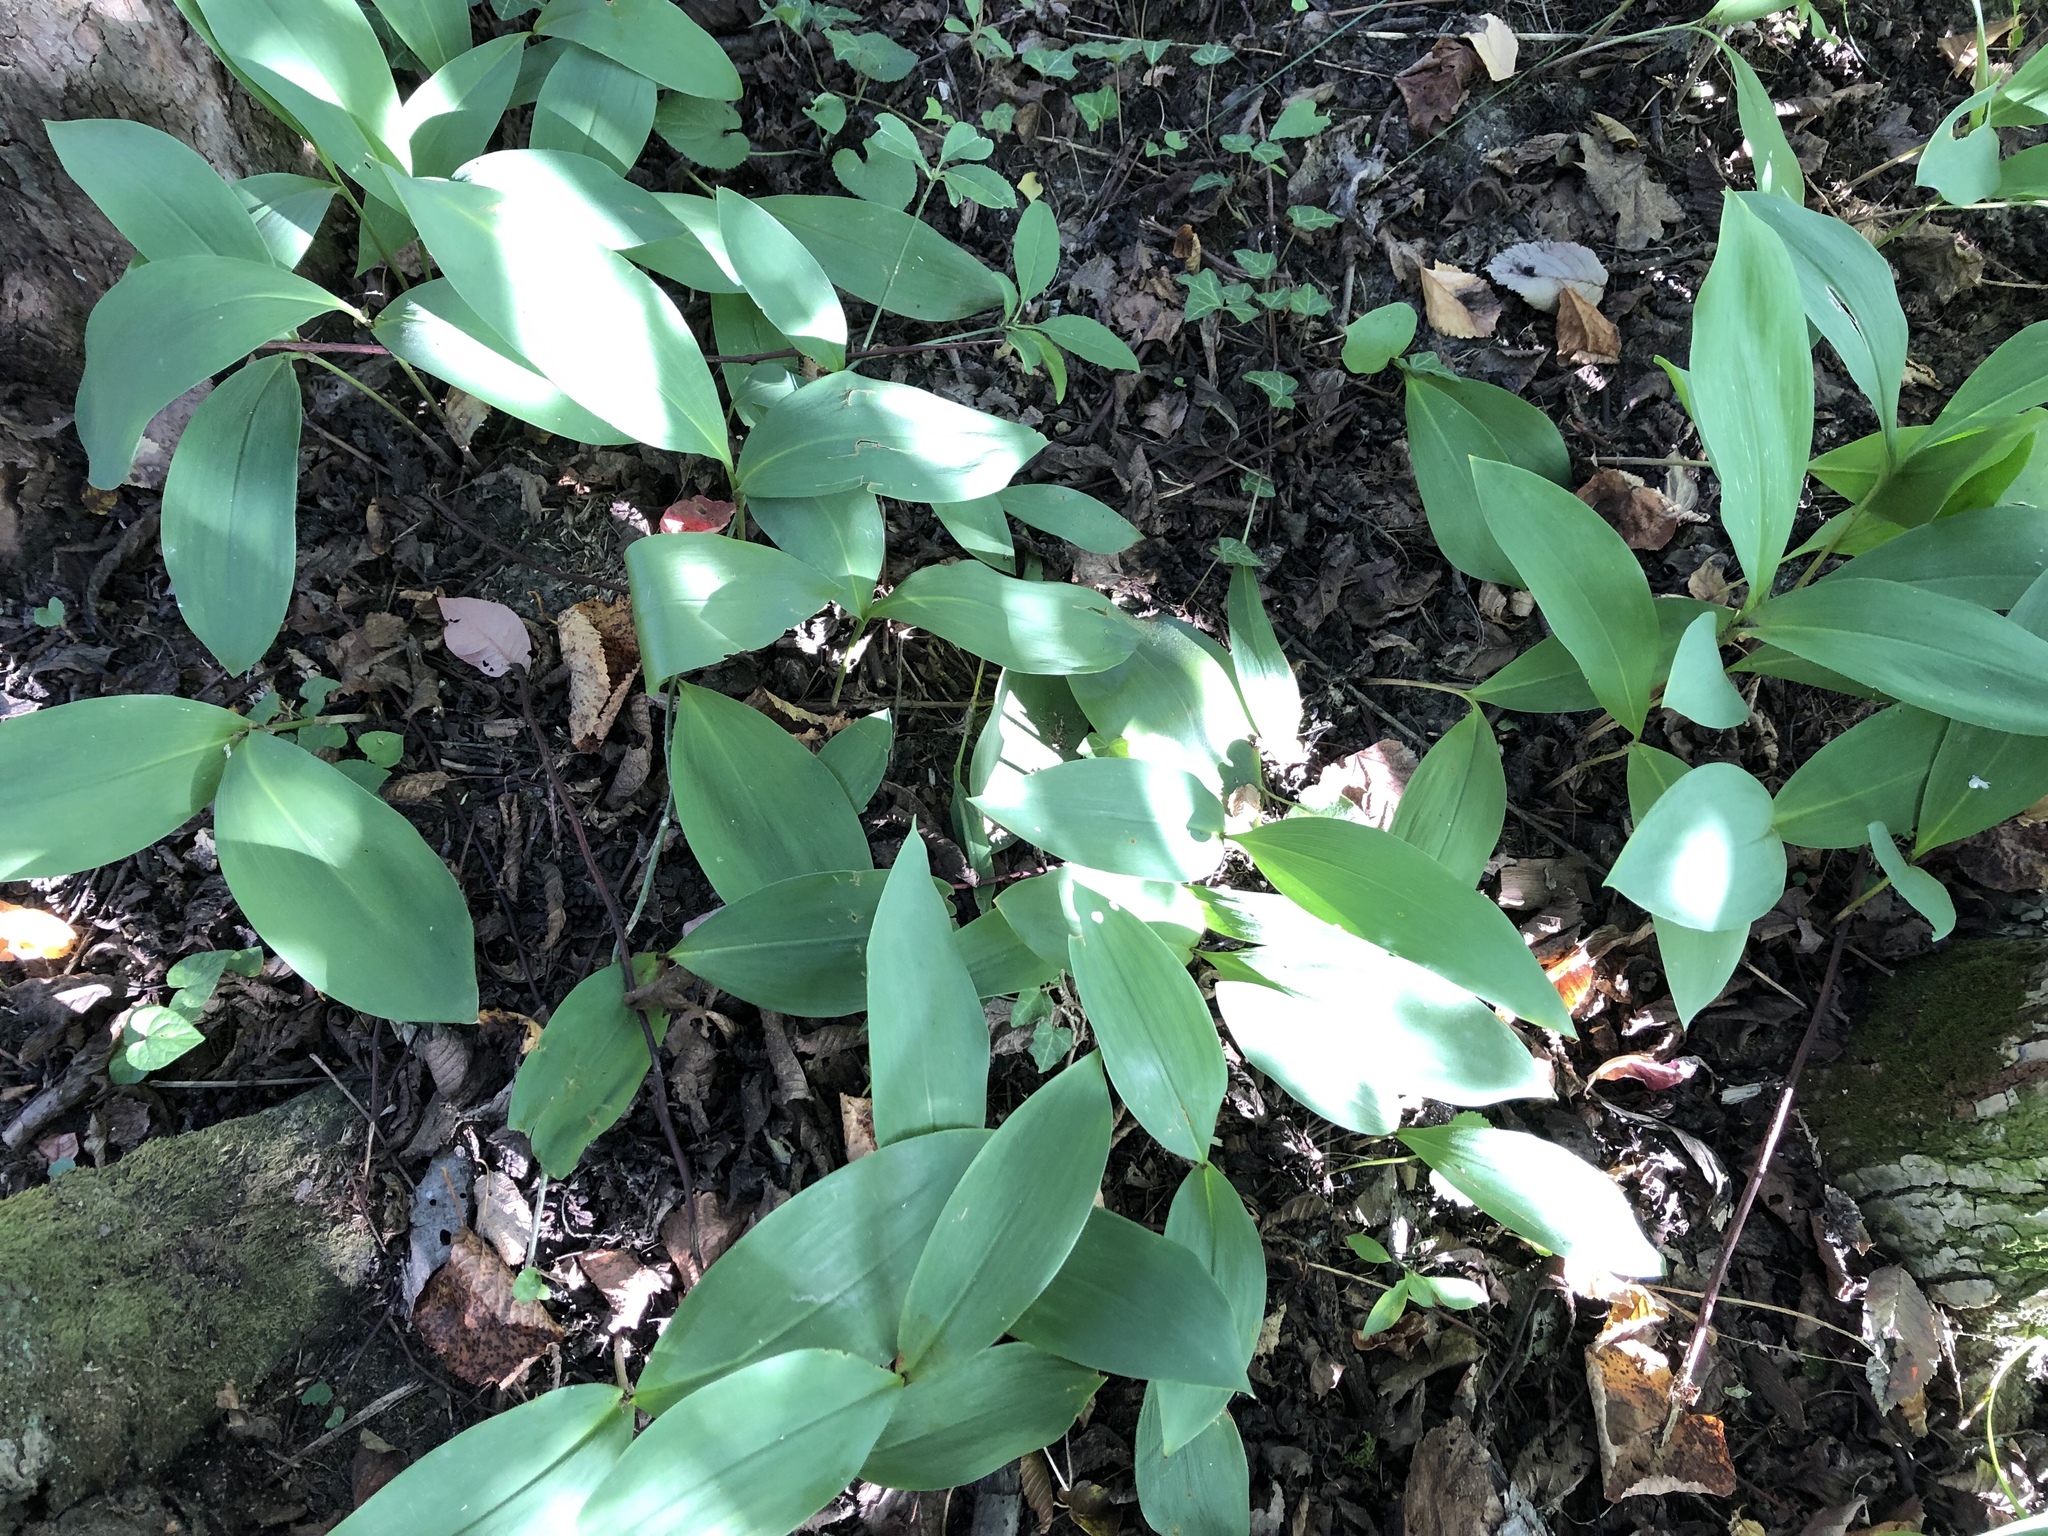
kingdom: Plantae
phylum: Tracheophyta
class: Liliopsida
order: Asparagales
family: Asparagaceae
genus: Convallaria
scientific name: Convallaria majalis
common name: Lily-of-the-valley
